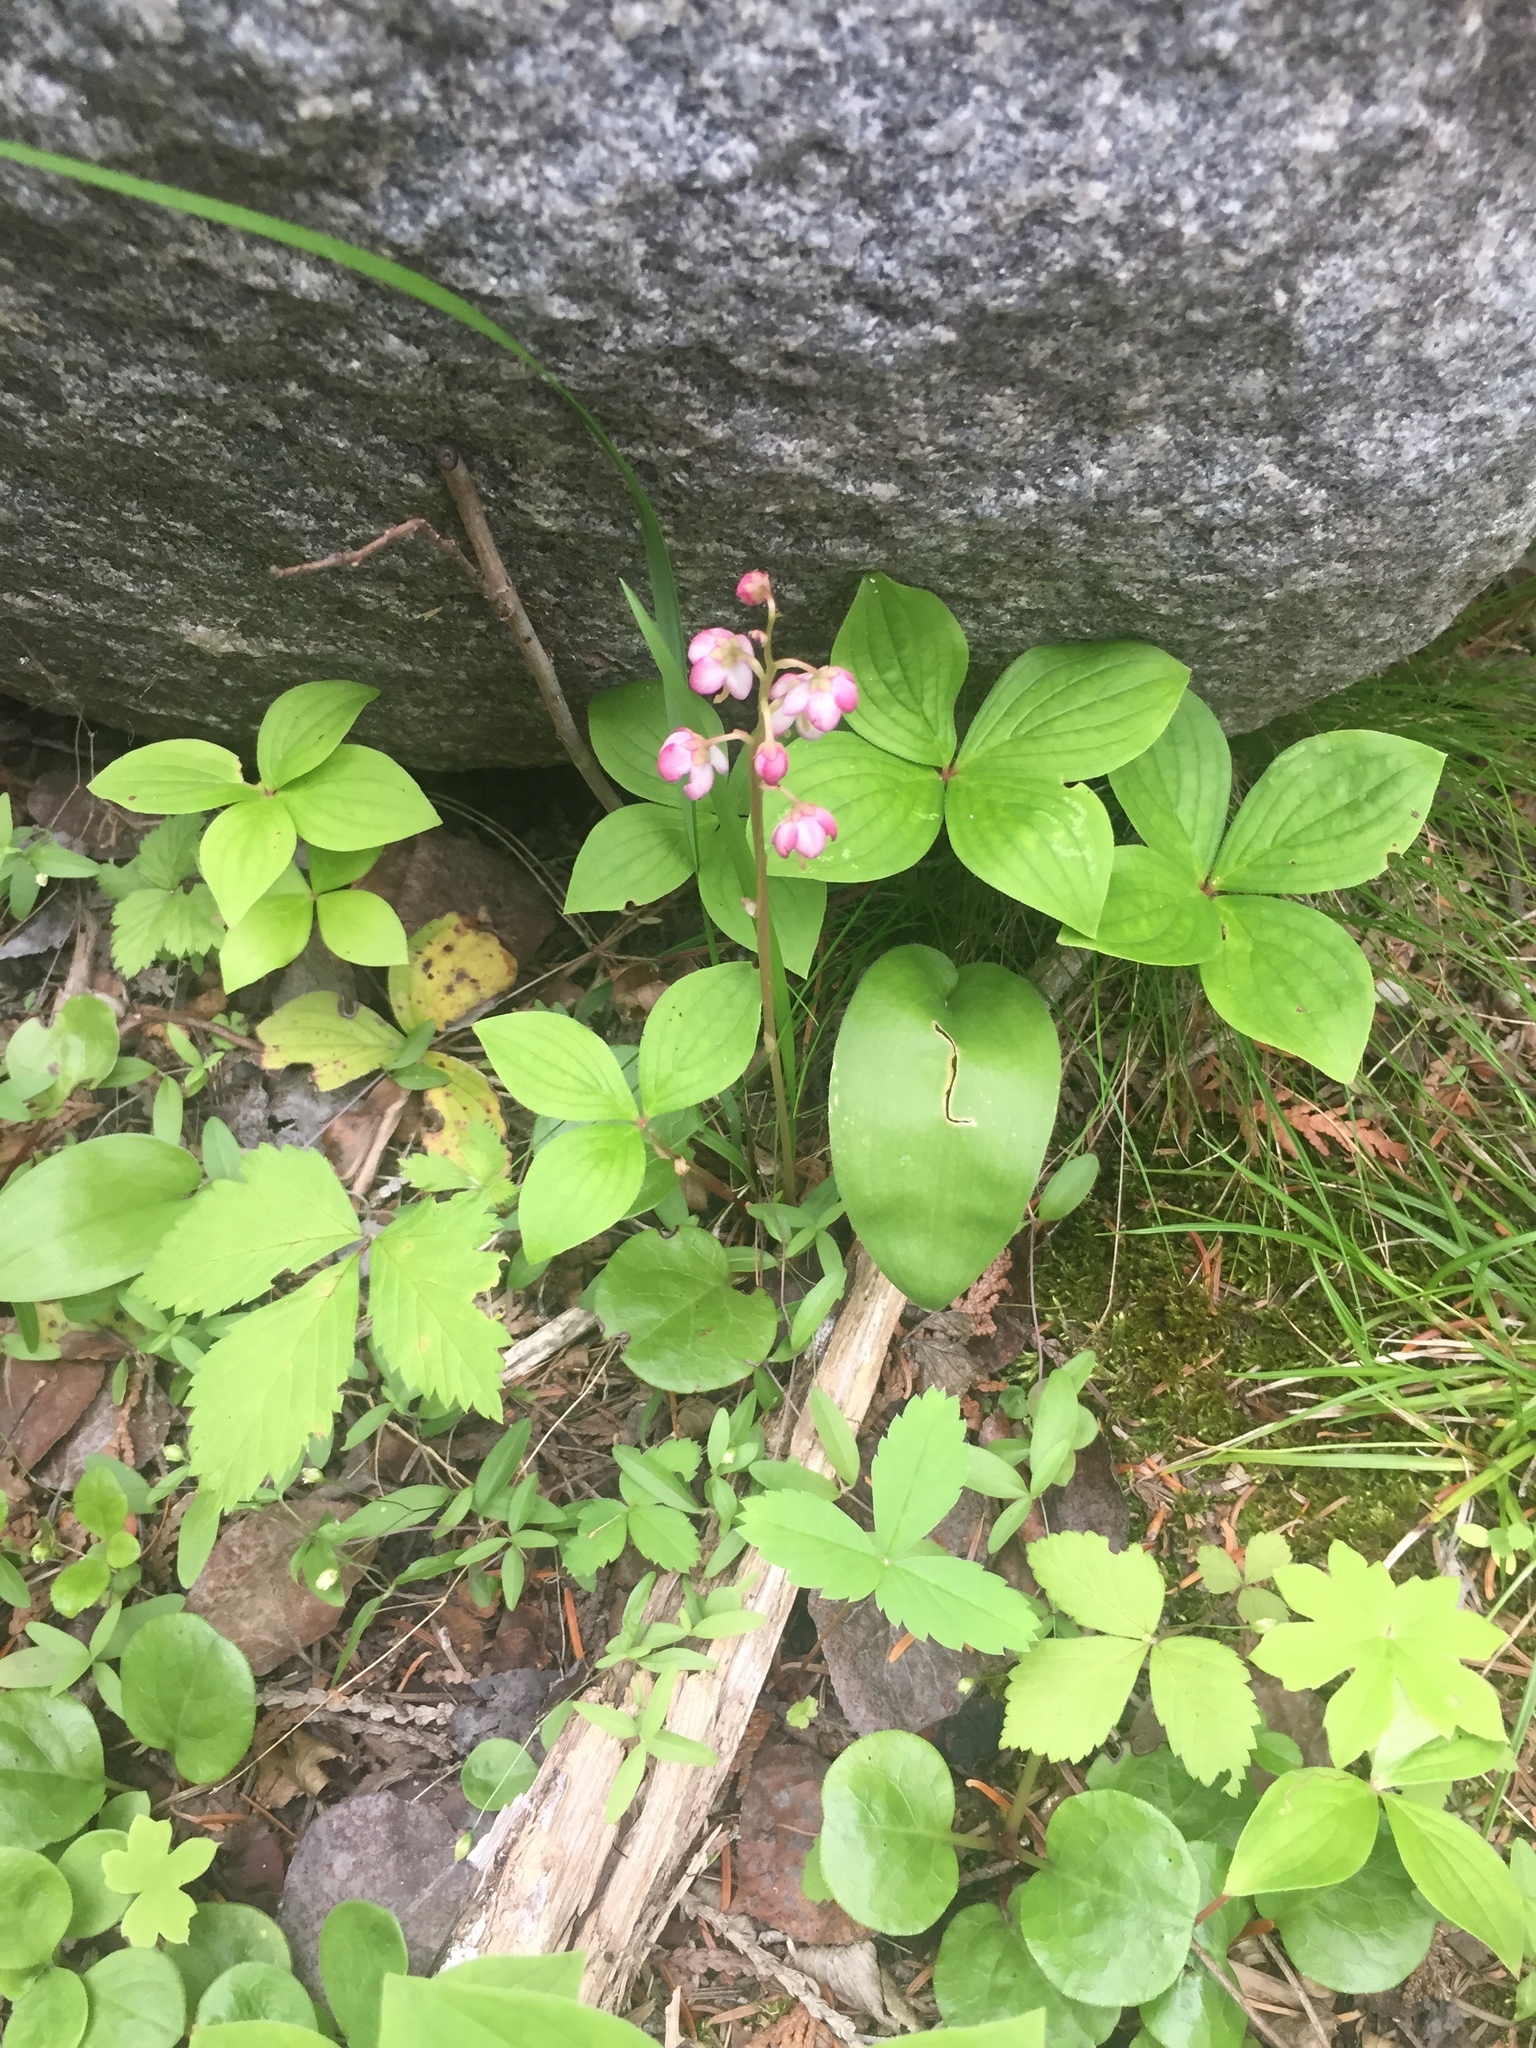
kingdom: Plantae
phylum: Tracheophyta
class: Magnoliopsida
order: Ericales
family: Ericaceae
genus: Pyrola
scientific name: Pyrola asarifolia
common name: Bog wintergreen
